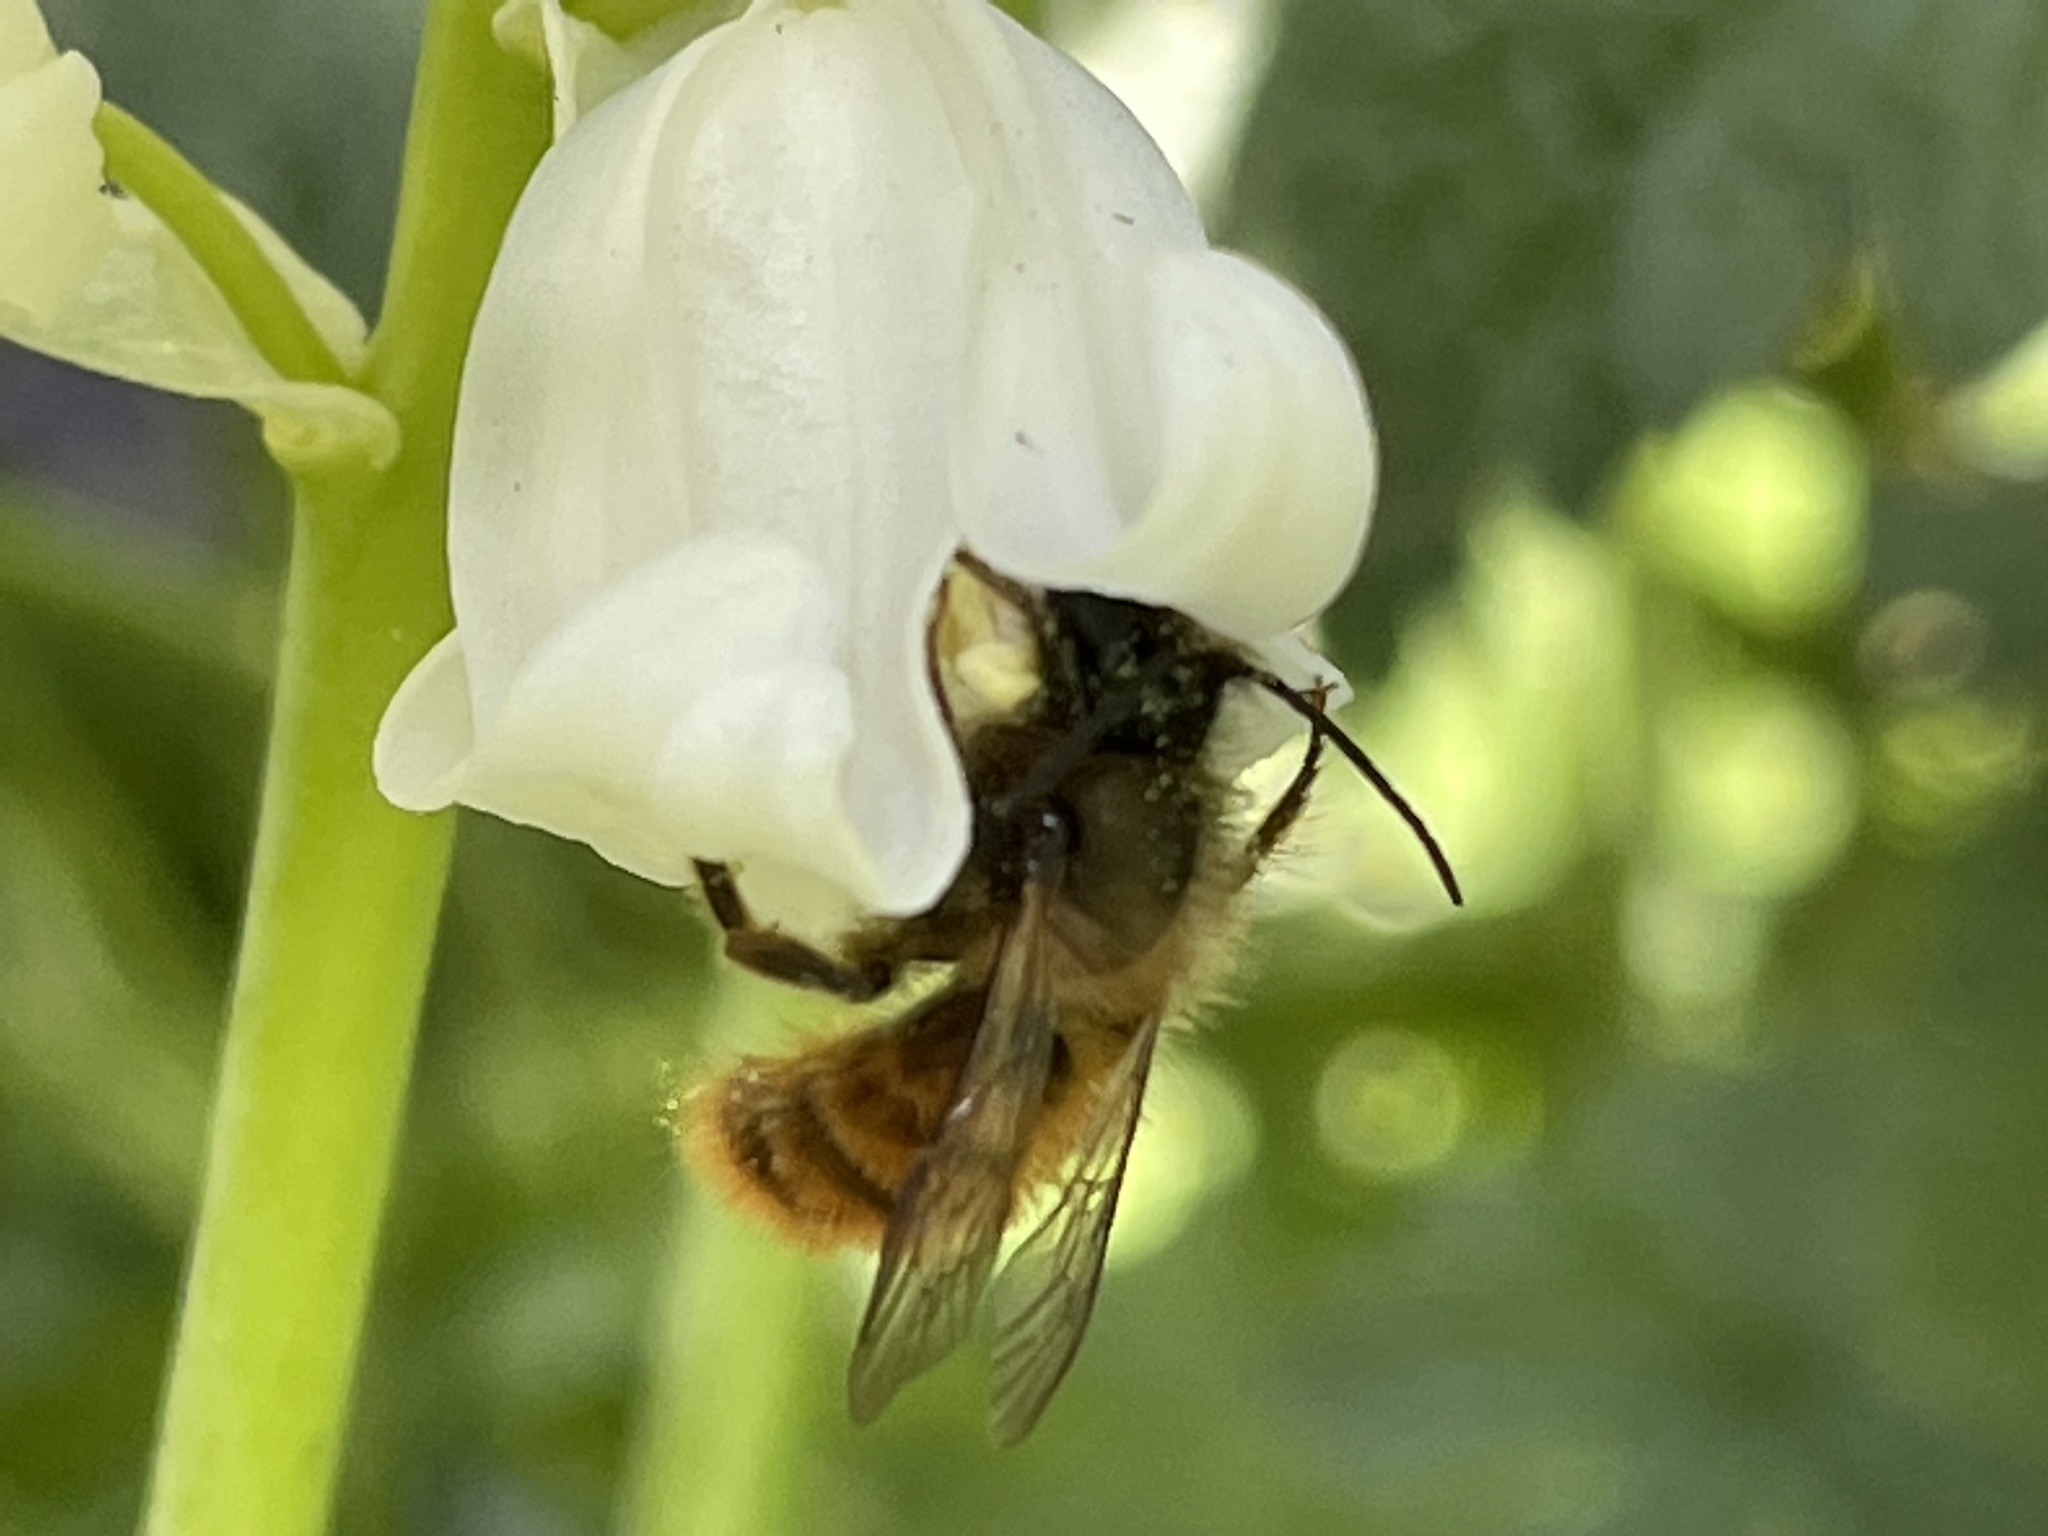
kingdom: Animalia
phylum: Arthropoda
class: Insecta
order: Hymenoptera
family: Megachilidae
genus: Osmia
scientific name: Osmia bicornis
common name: Red mason bee
